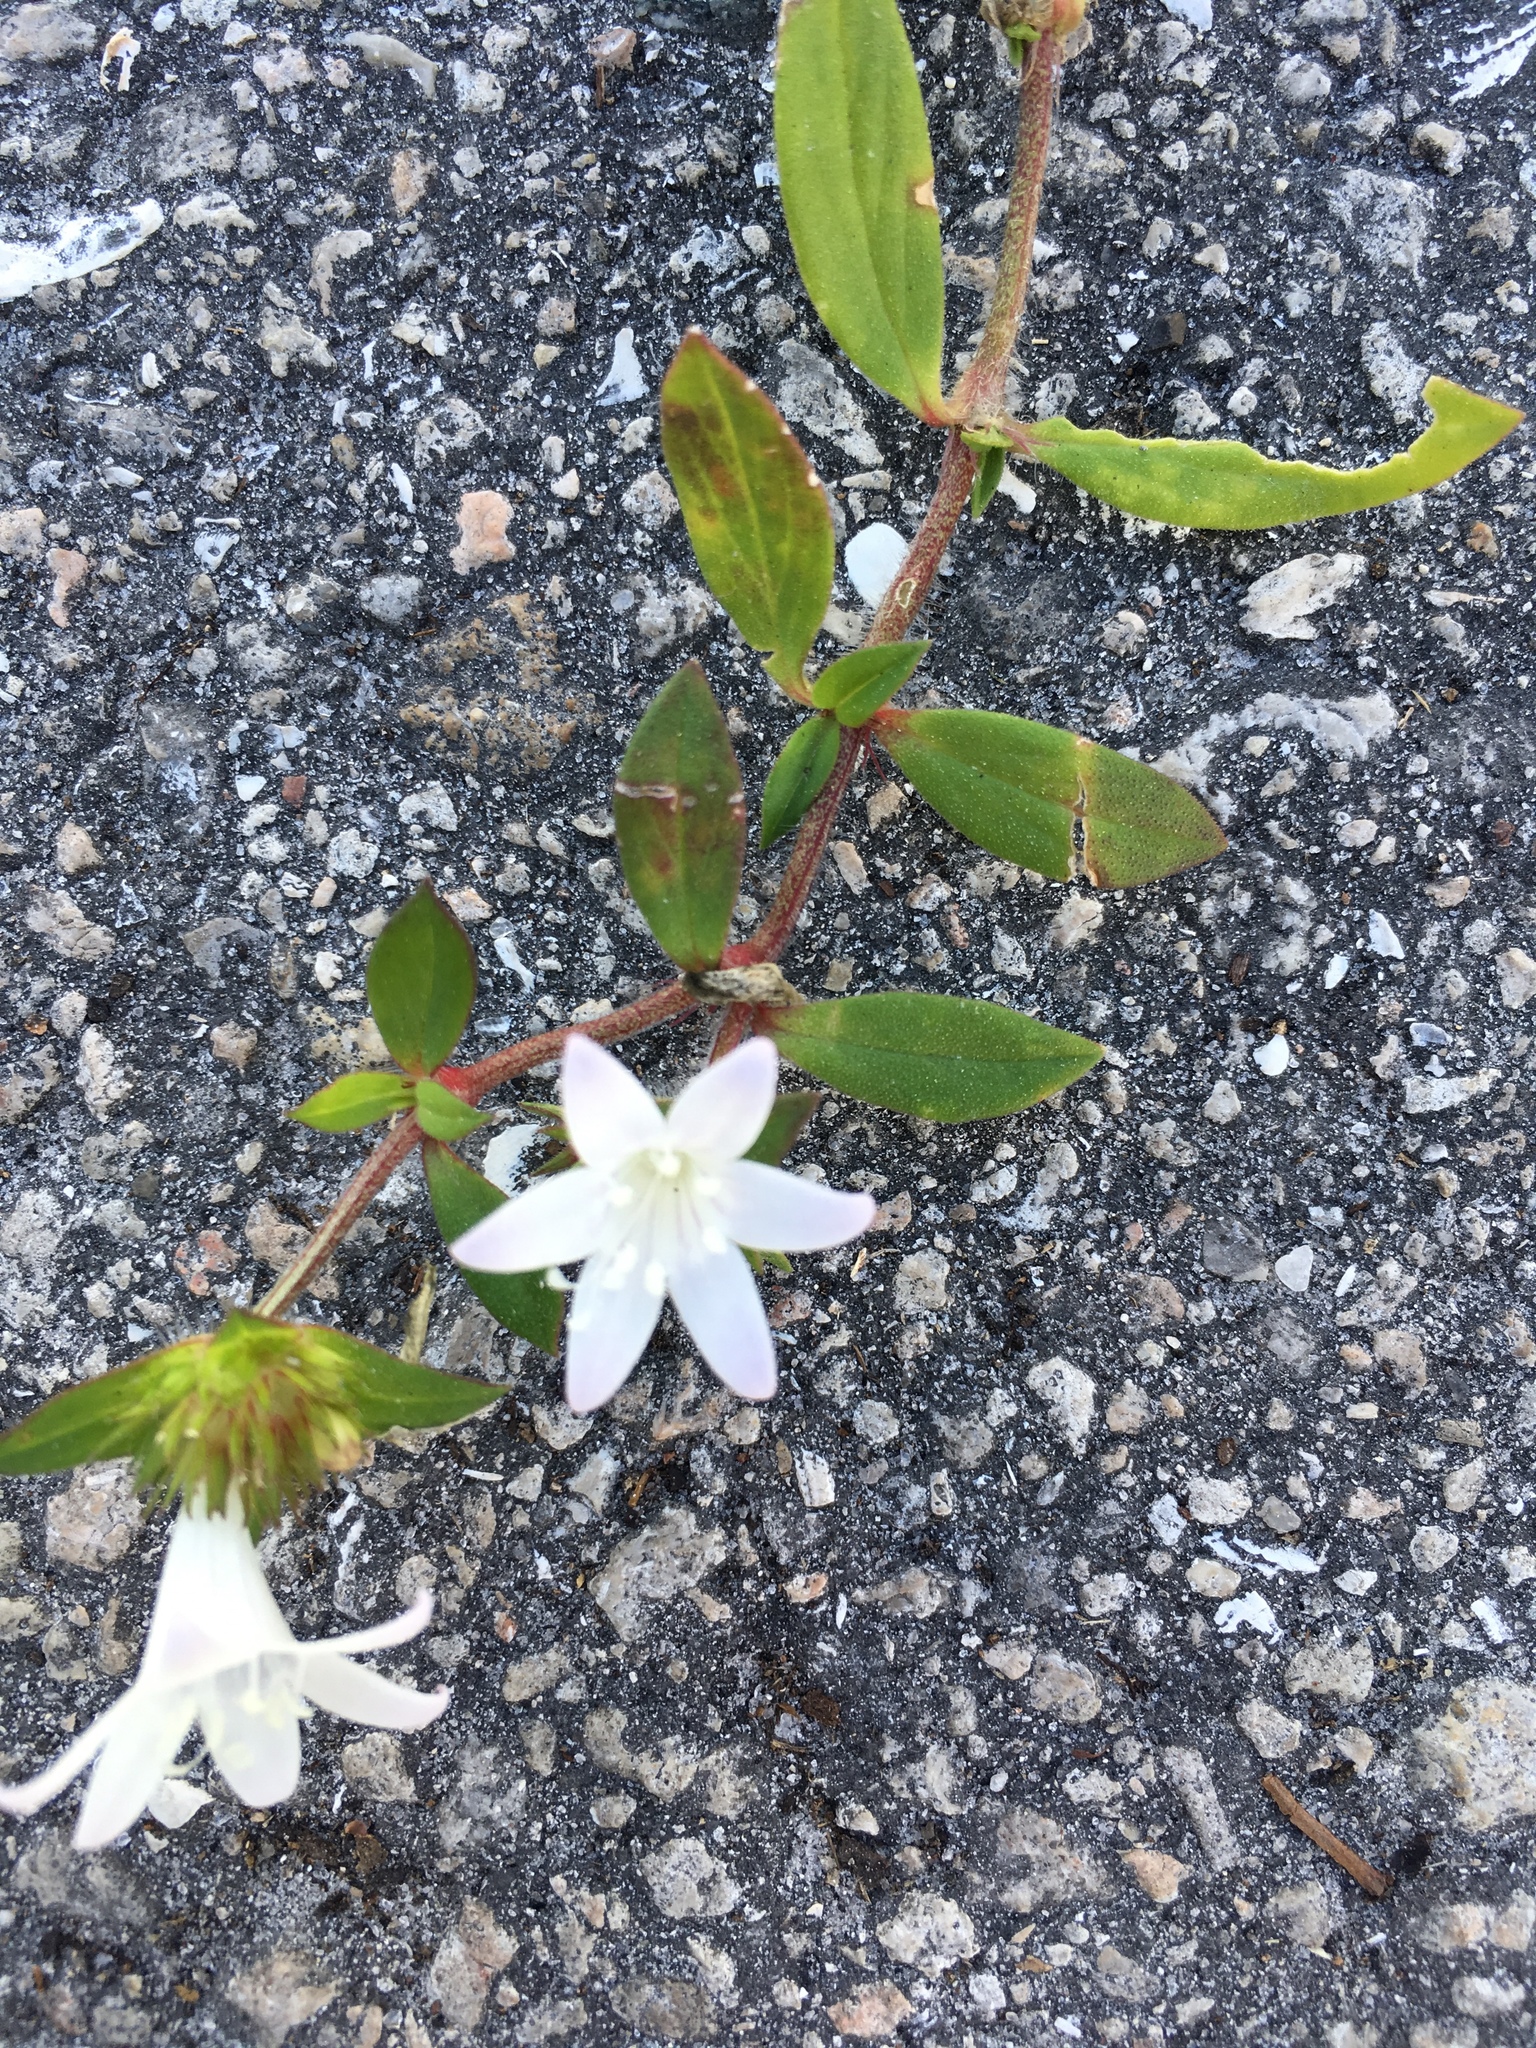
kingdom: Plantae
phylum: Tracheophyta
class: Magnoliopsida
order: Gentianales
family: Rubiaceae
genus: Richardia
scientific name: Richardia grandiflora
